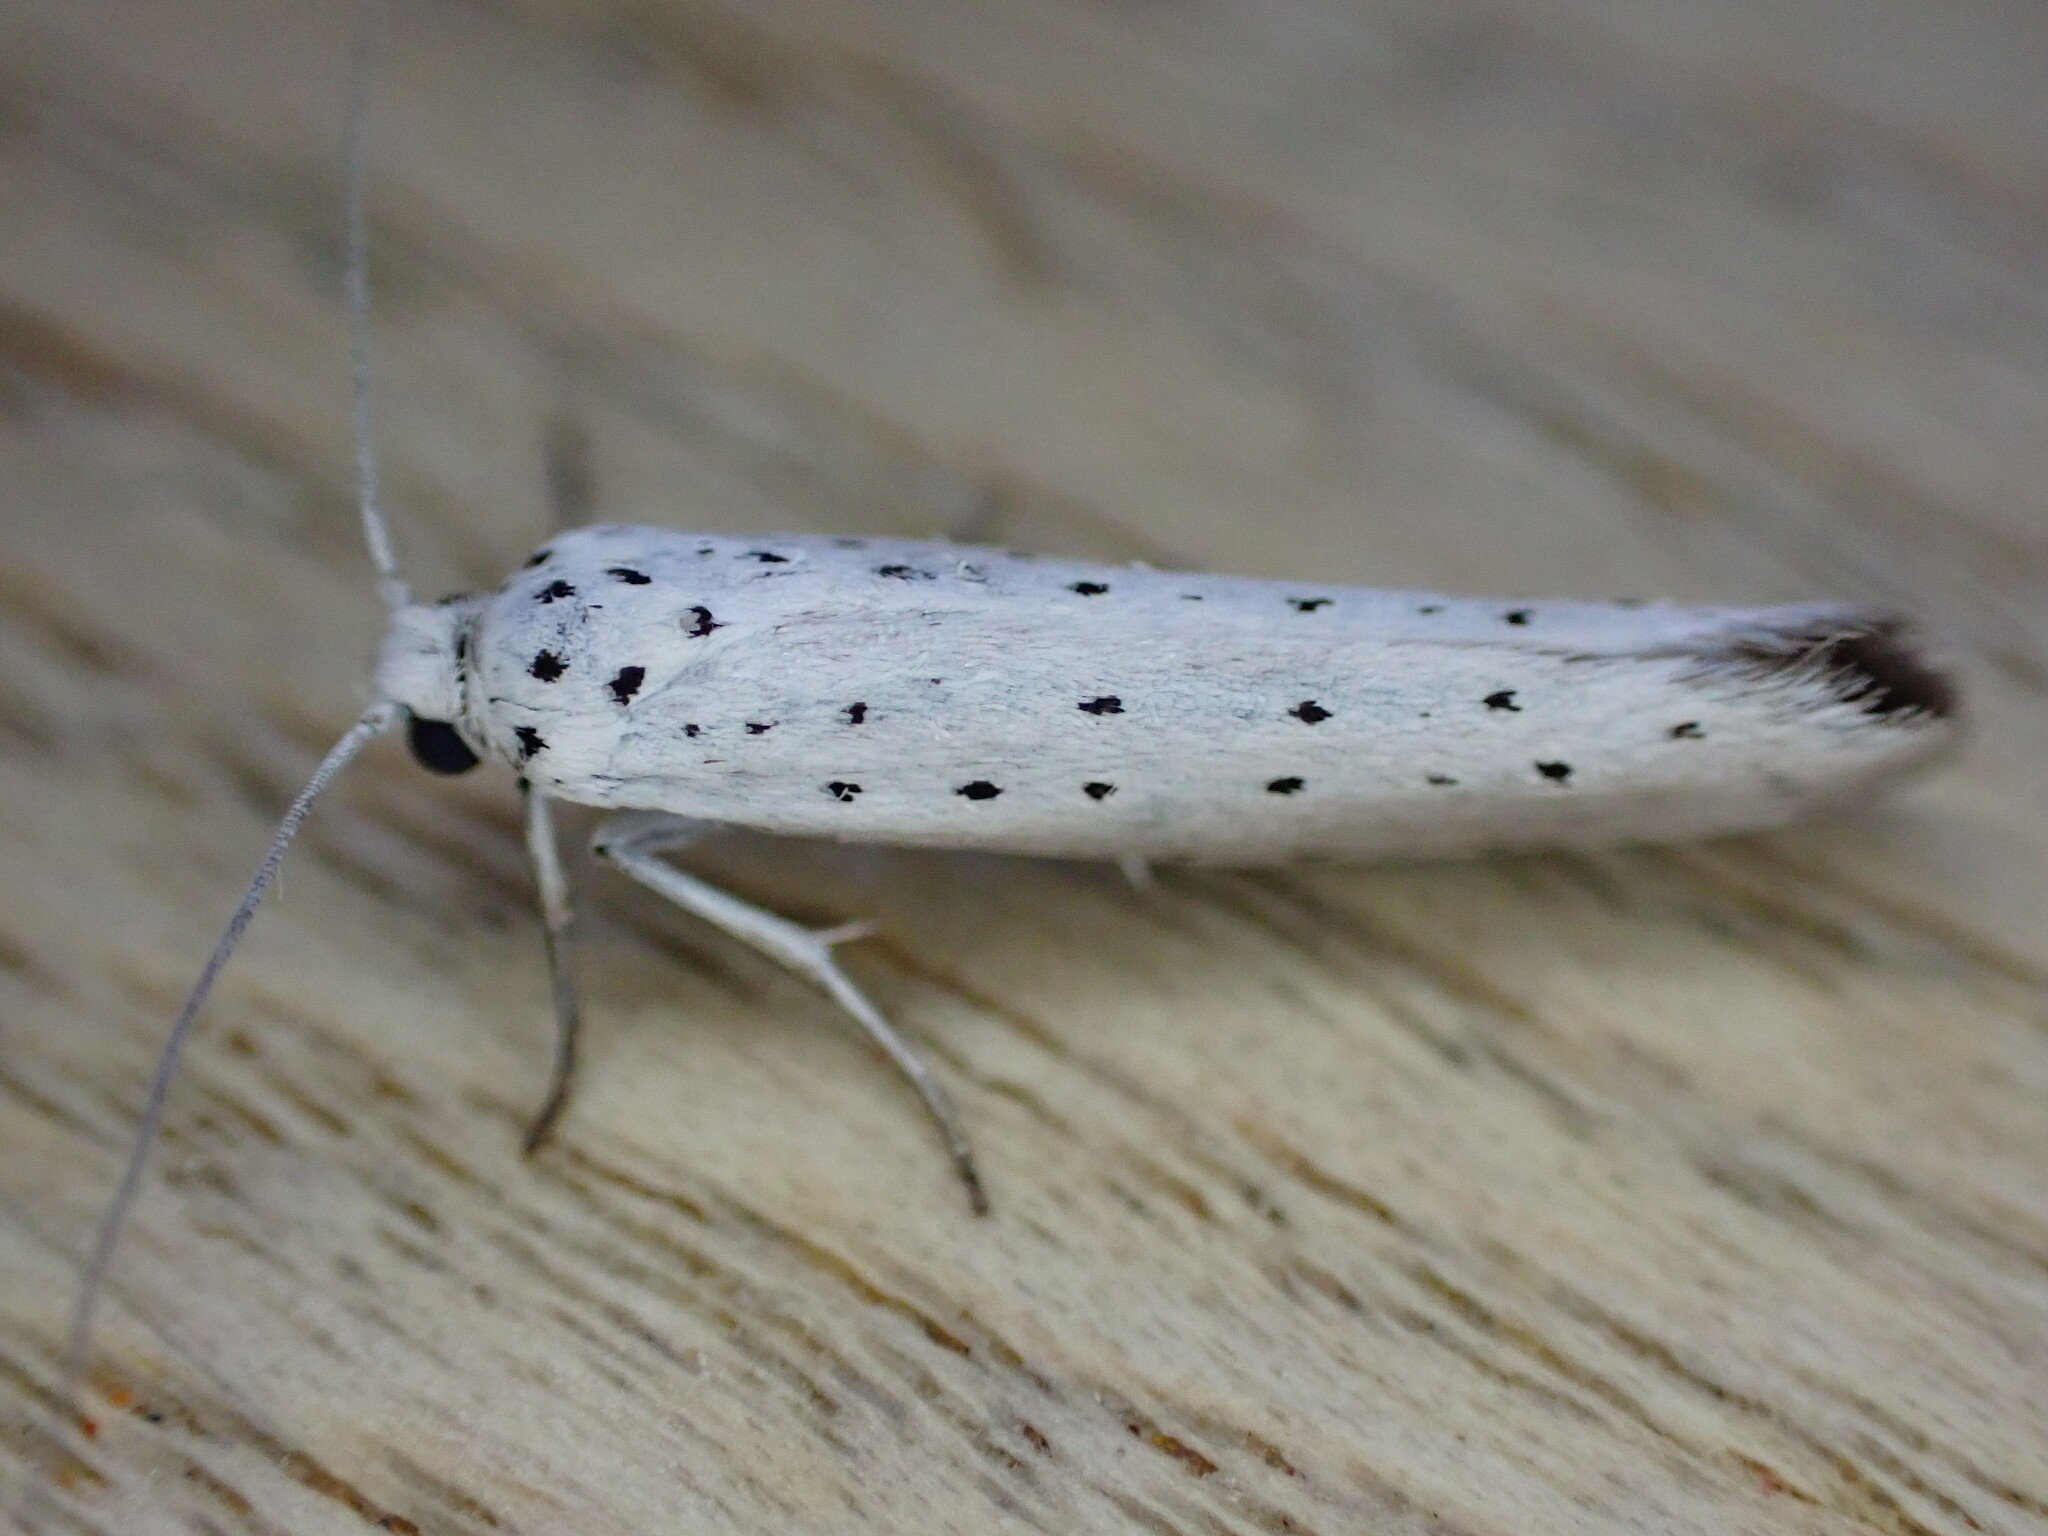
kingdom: Animalia
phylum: Arthropoda
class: Insecta
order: Lepidoptera
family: Yponomeutidae
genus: Yponomeuta
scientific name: Yponomeuta
